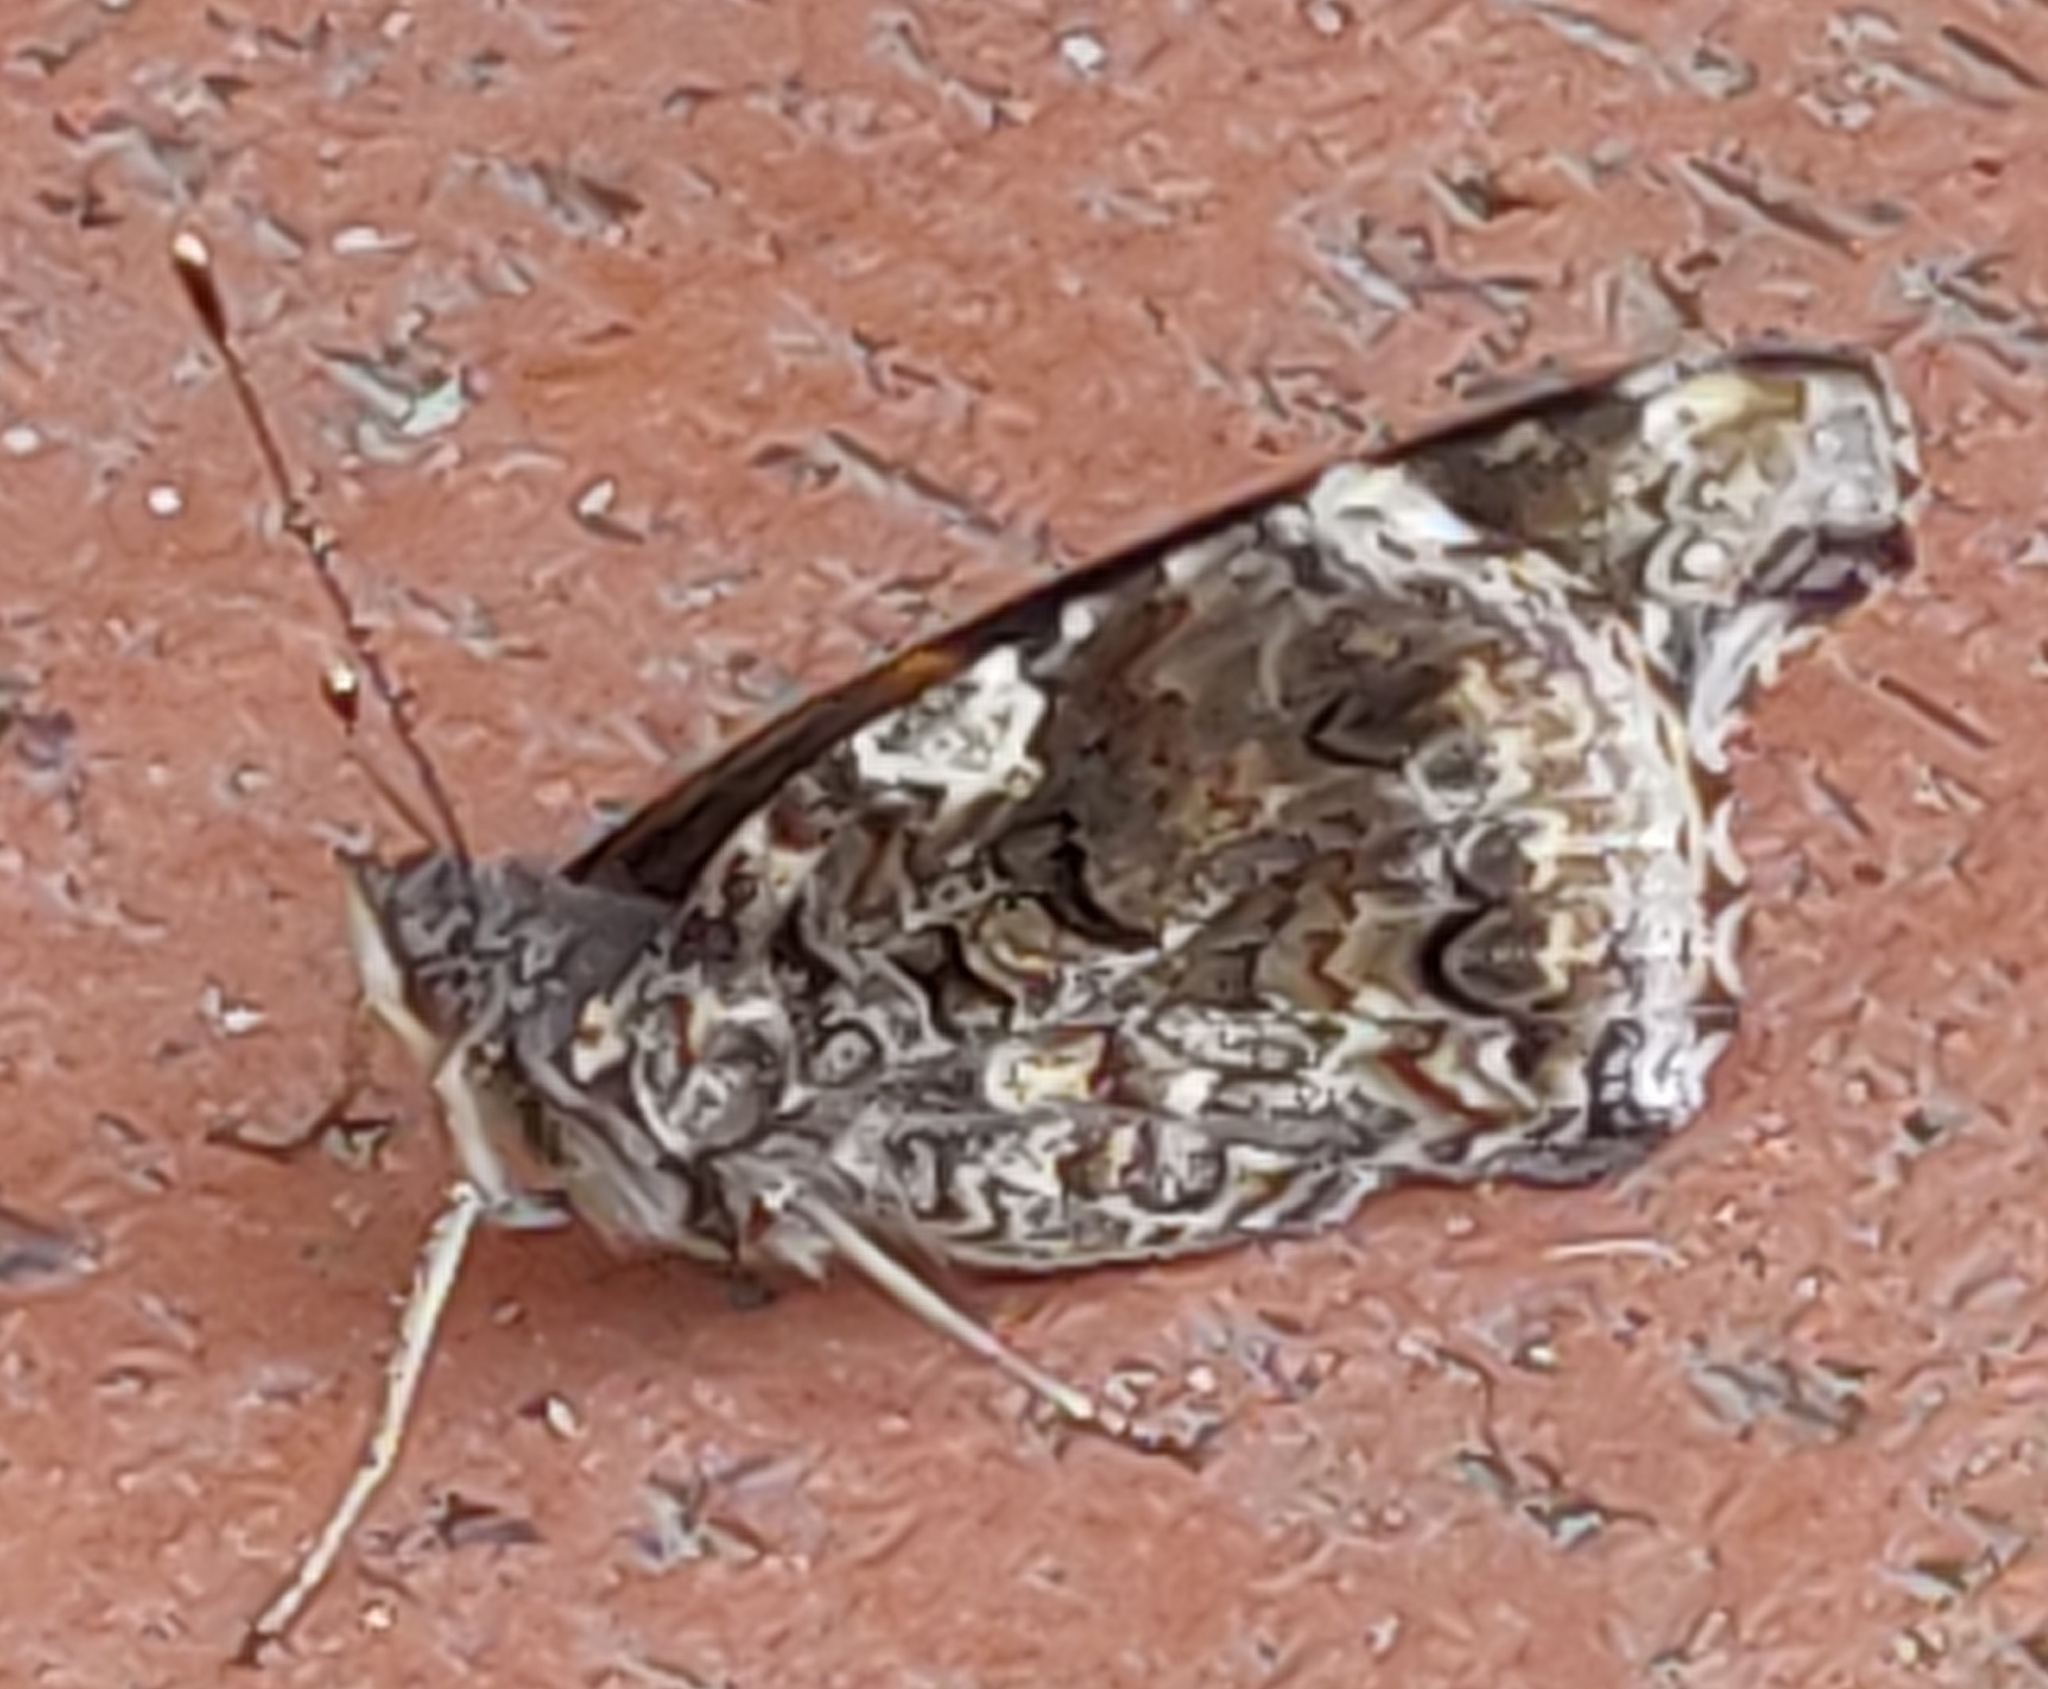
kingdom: Animalia
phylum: Arthropoda
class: Insecta
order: Lepidoptera
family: Nymphalidae
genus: Vanessa
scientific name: Vanessa atalanta
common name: Red admiral
